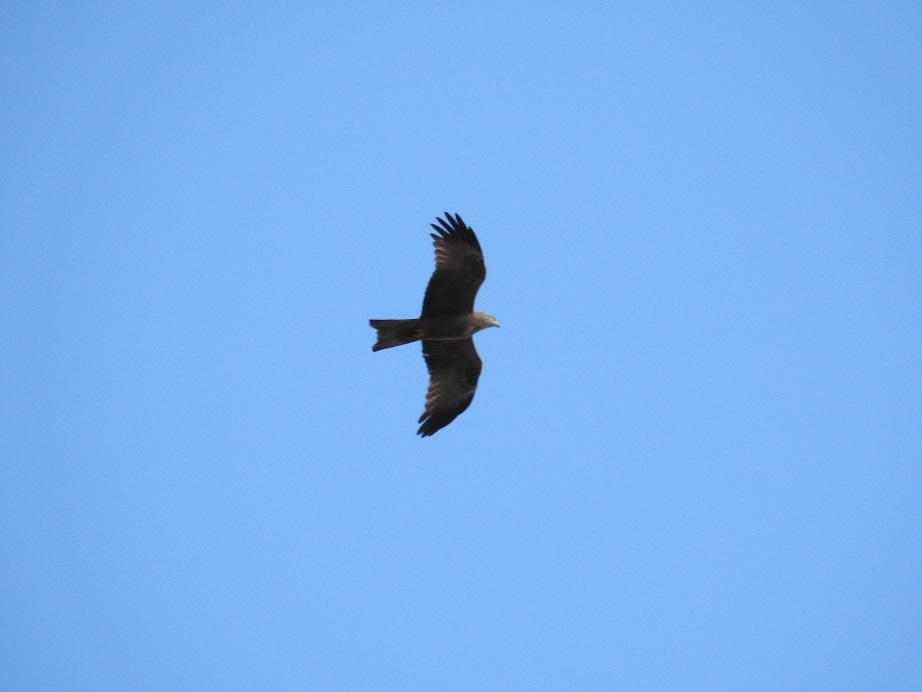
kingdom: Animalia
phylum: Chordata
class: Aves
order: Accipitriformes
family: Accipitridae
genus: Milvus
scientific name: Milvus migrans
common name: Black kite
